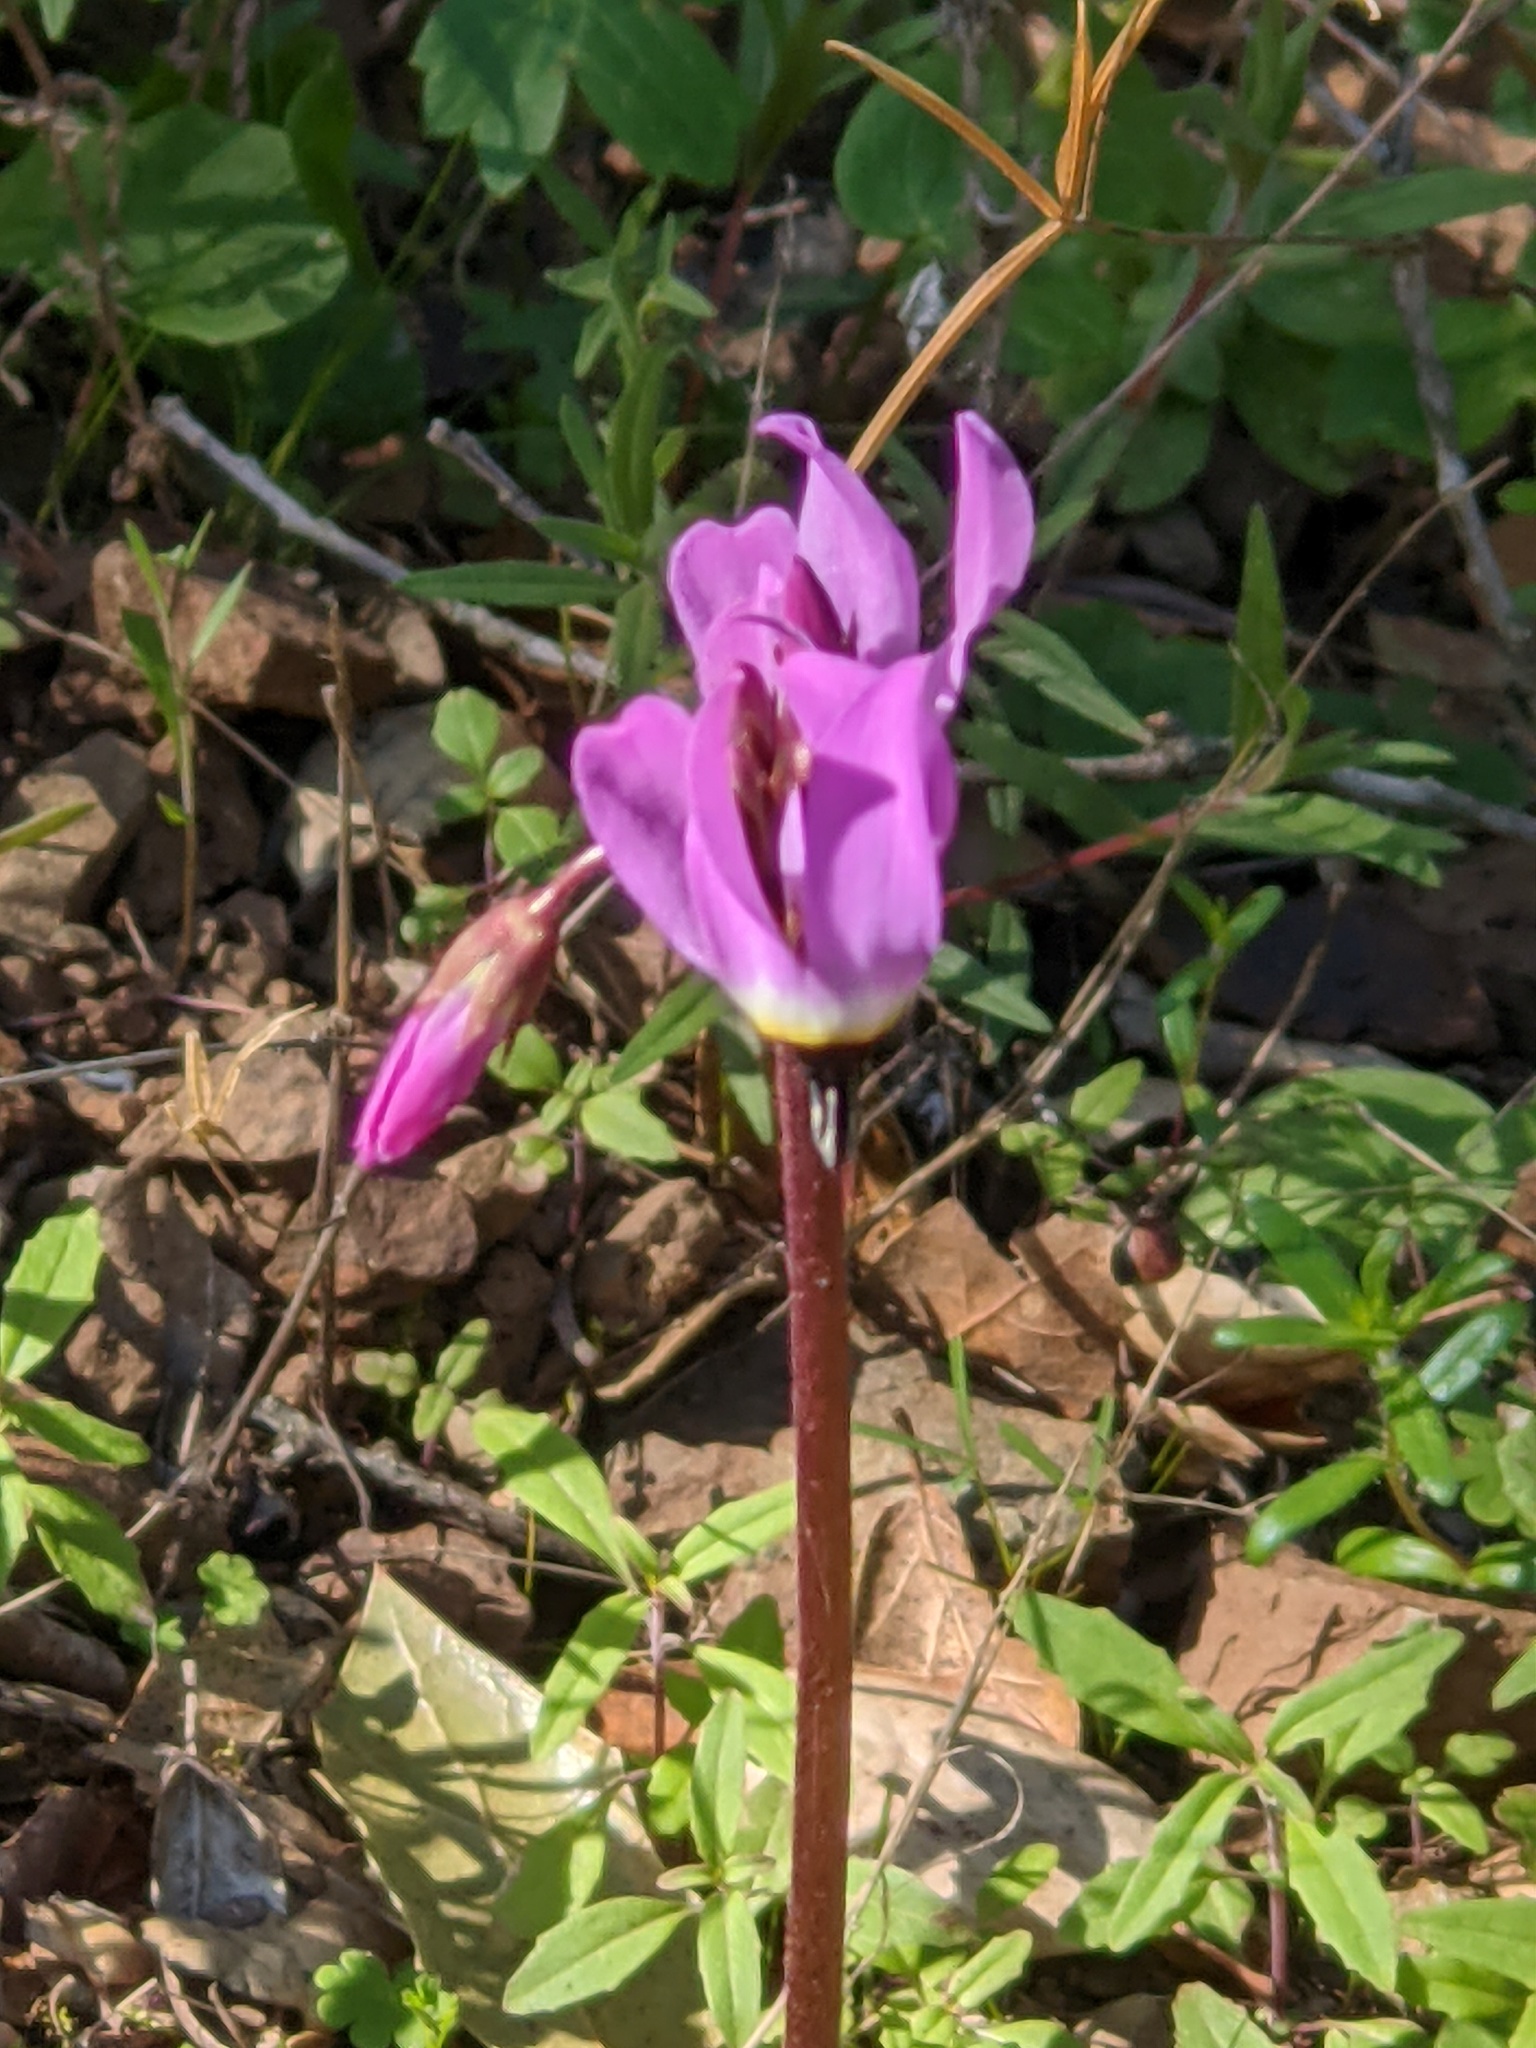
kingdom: Plantae
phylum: Tracheophyta
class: Magnoliopsida
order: Ericales
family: Primulaceae
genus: Dodecatheon
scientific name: Dodecatheon hendersonii
